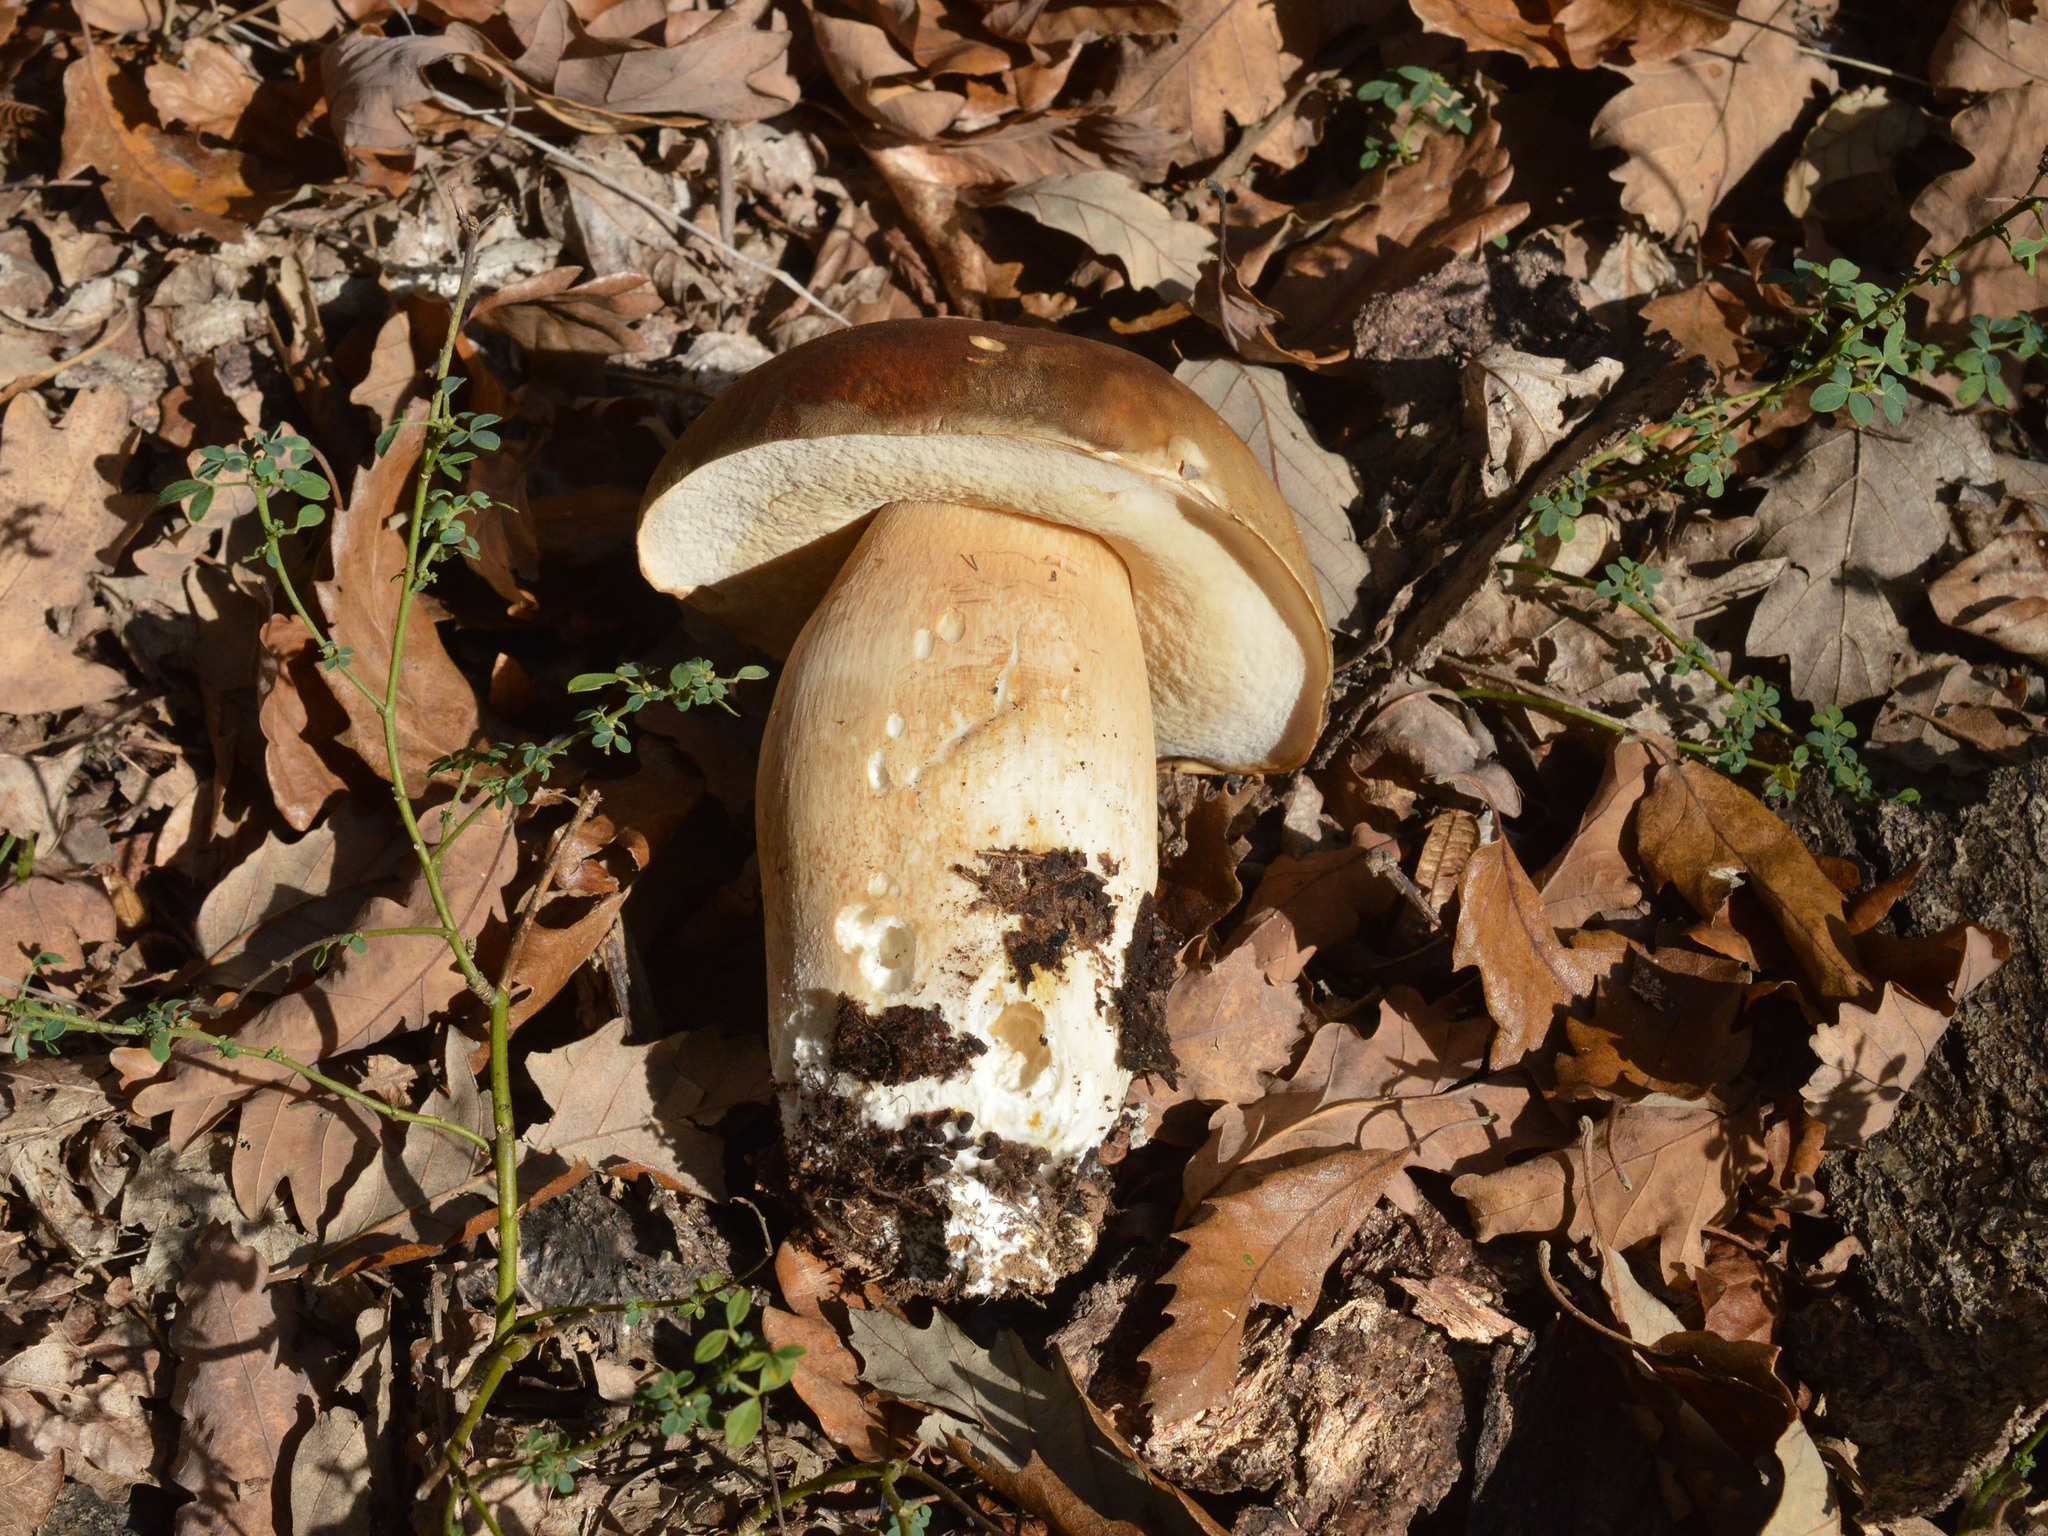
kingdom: Fungi
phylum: Basidiomycota
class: Agaricomycetes
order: Boletales
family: Boletaceae
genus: Boletus
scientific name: Boletus aereus
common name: Bronze bolete
